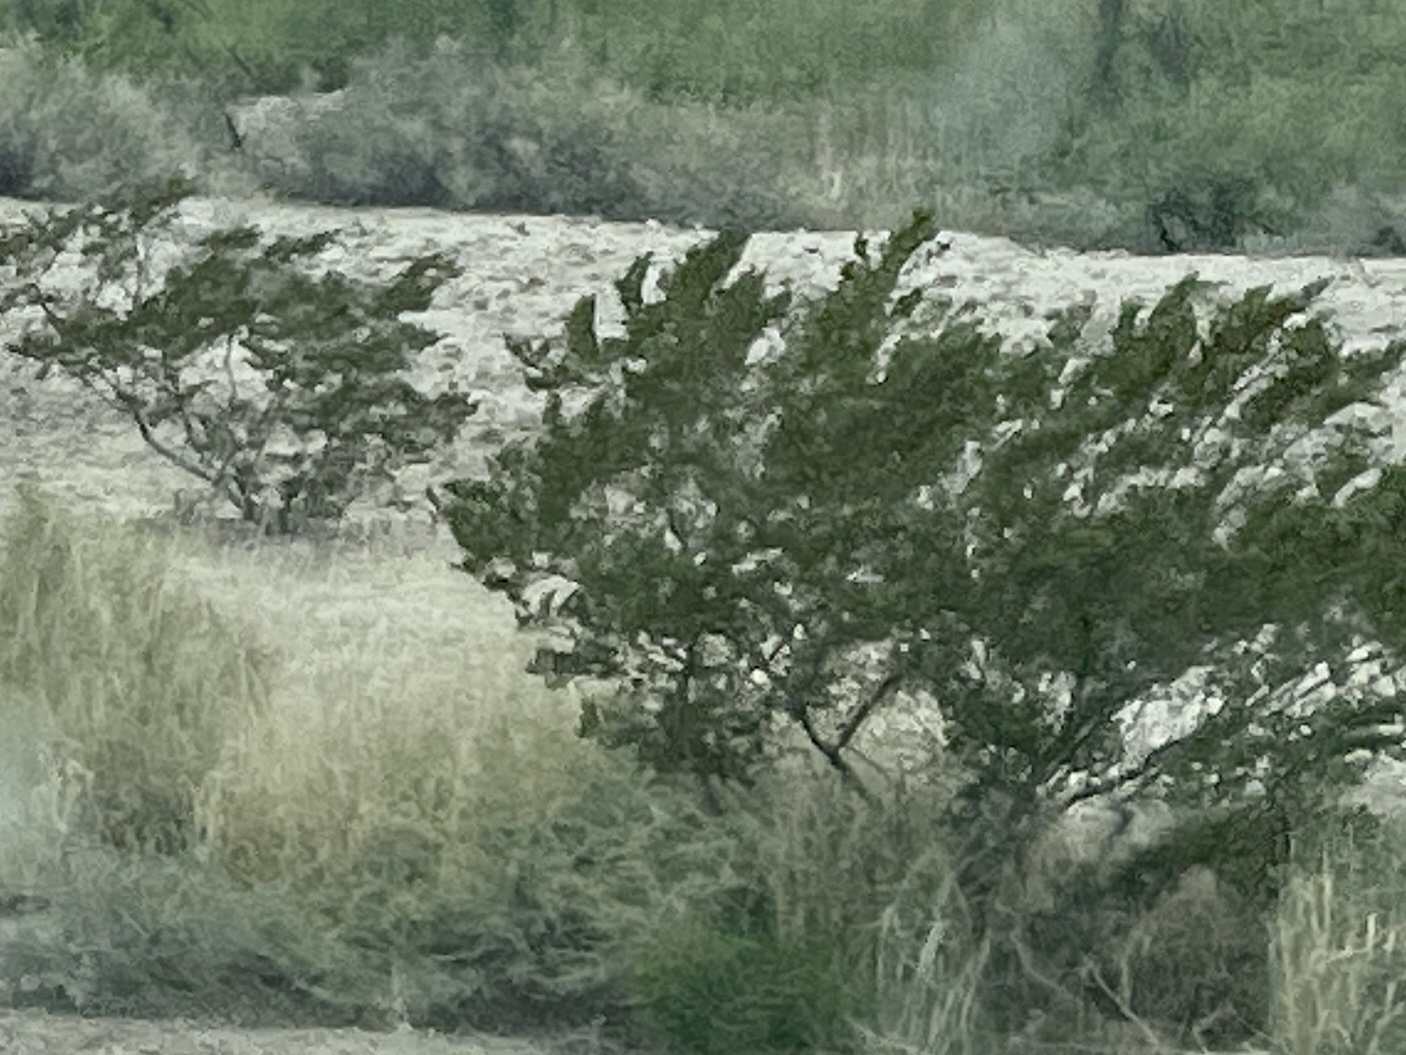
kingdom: Plantae
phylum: Tracheophyta
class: Magnoliopsida
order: Zygophyllales
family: Zygophyllaceae
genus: Larrea
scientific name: Larrea tridentata
